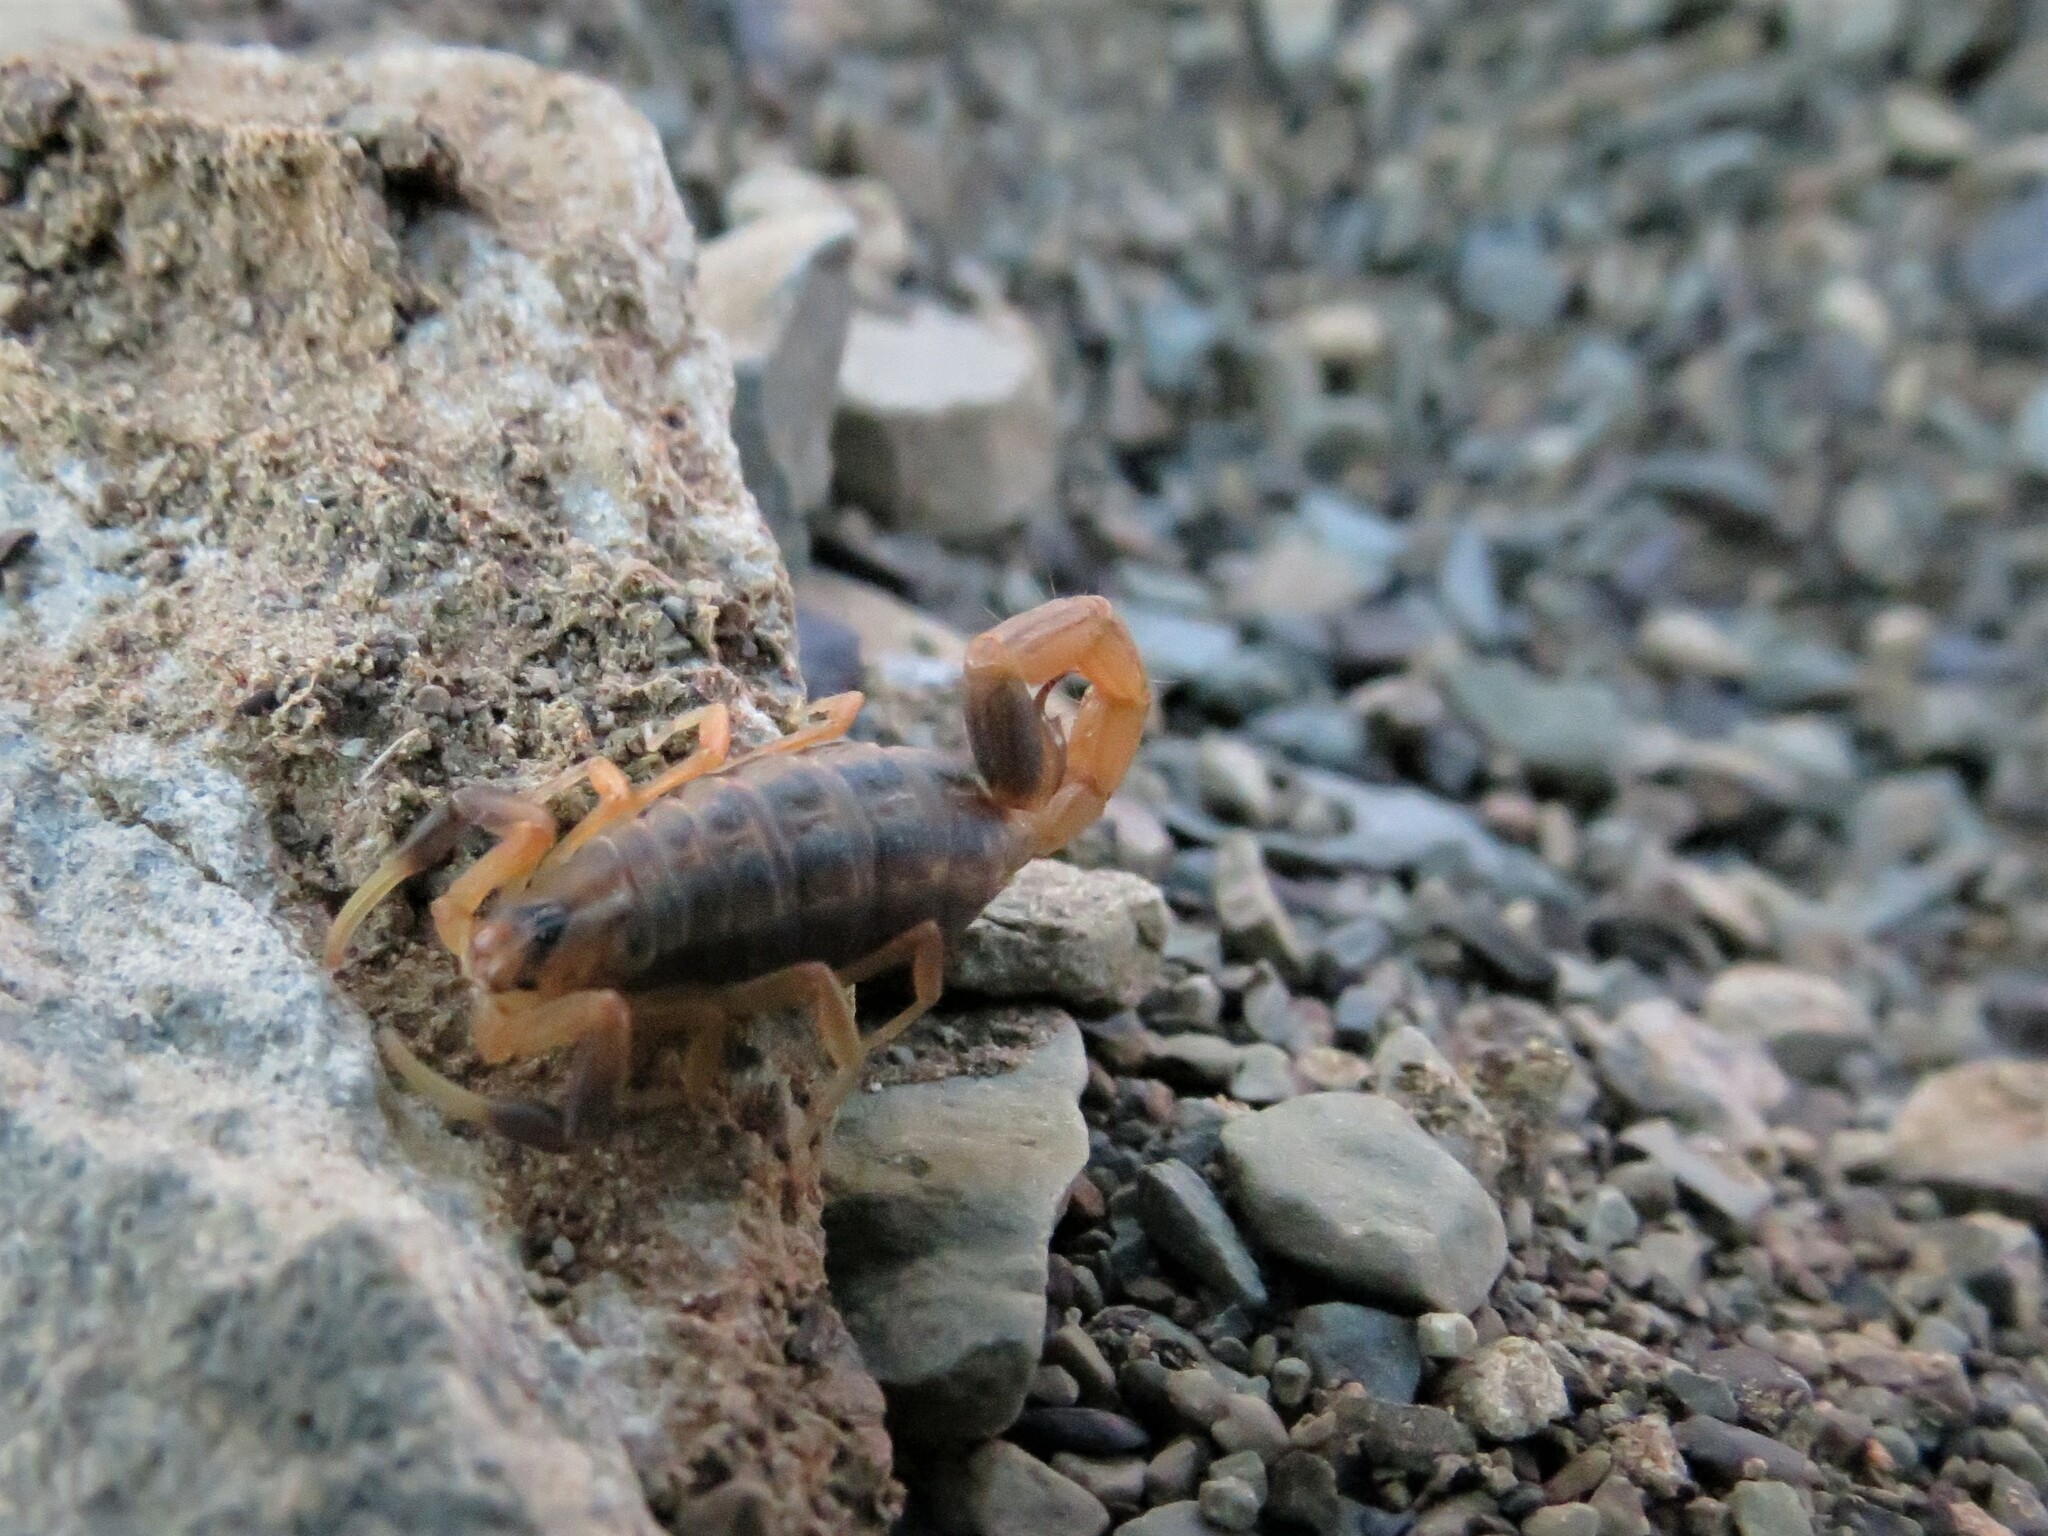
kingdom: Animalia
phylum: Arthropoda
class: Arachnida
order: Scorpiones
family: Buthidae
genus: Uroplectes
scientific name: Uroplectes triangulifer
